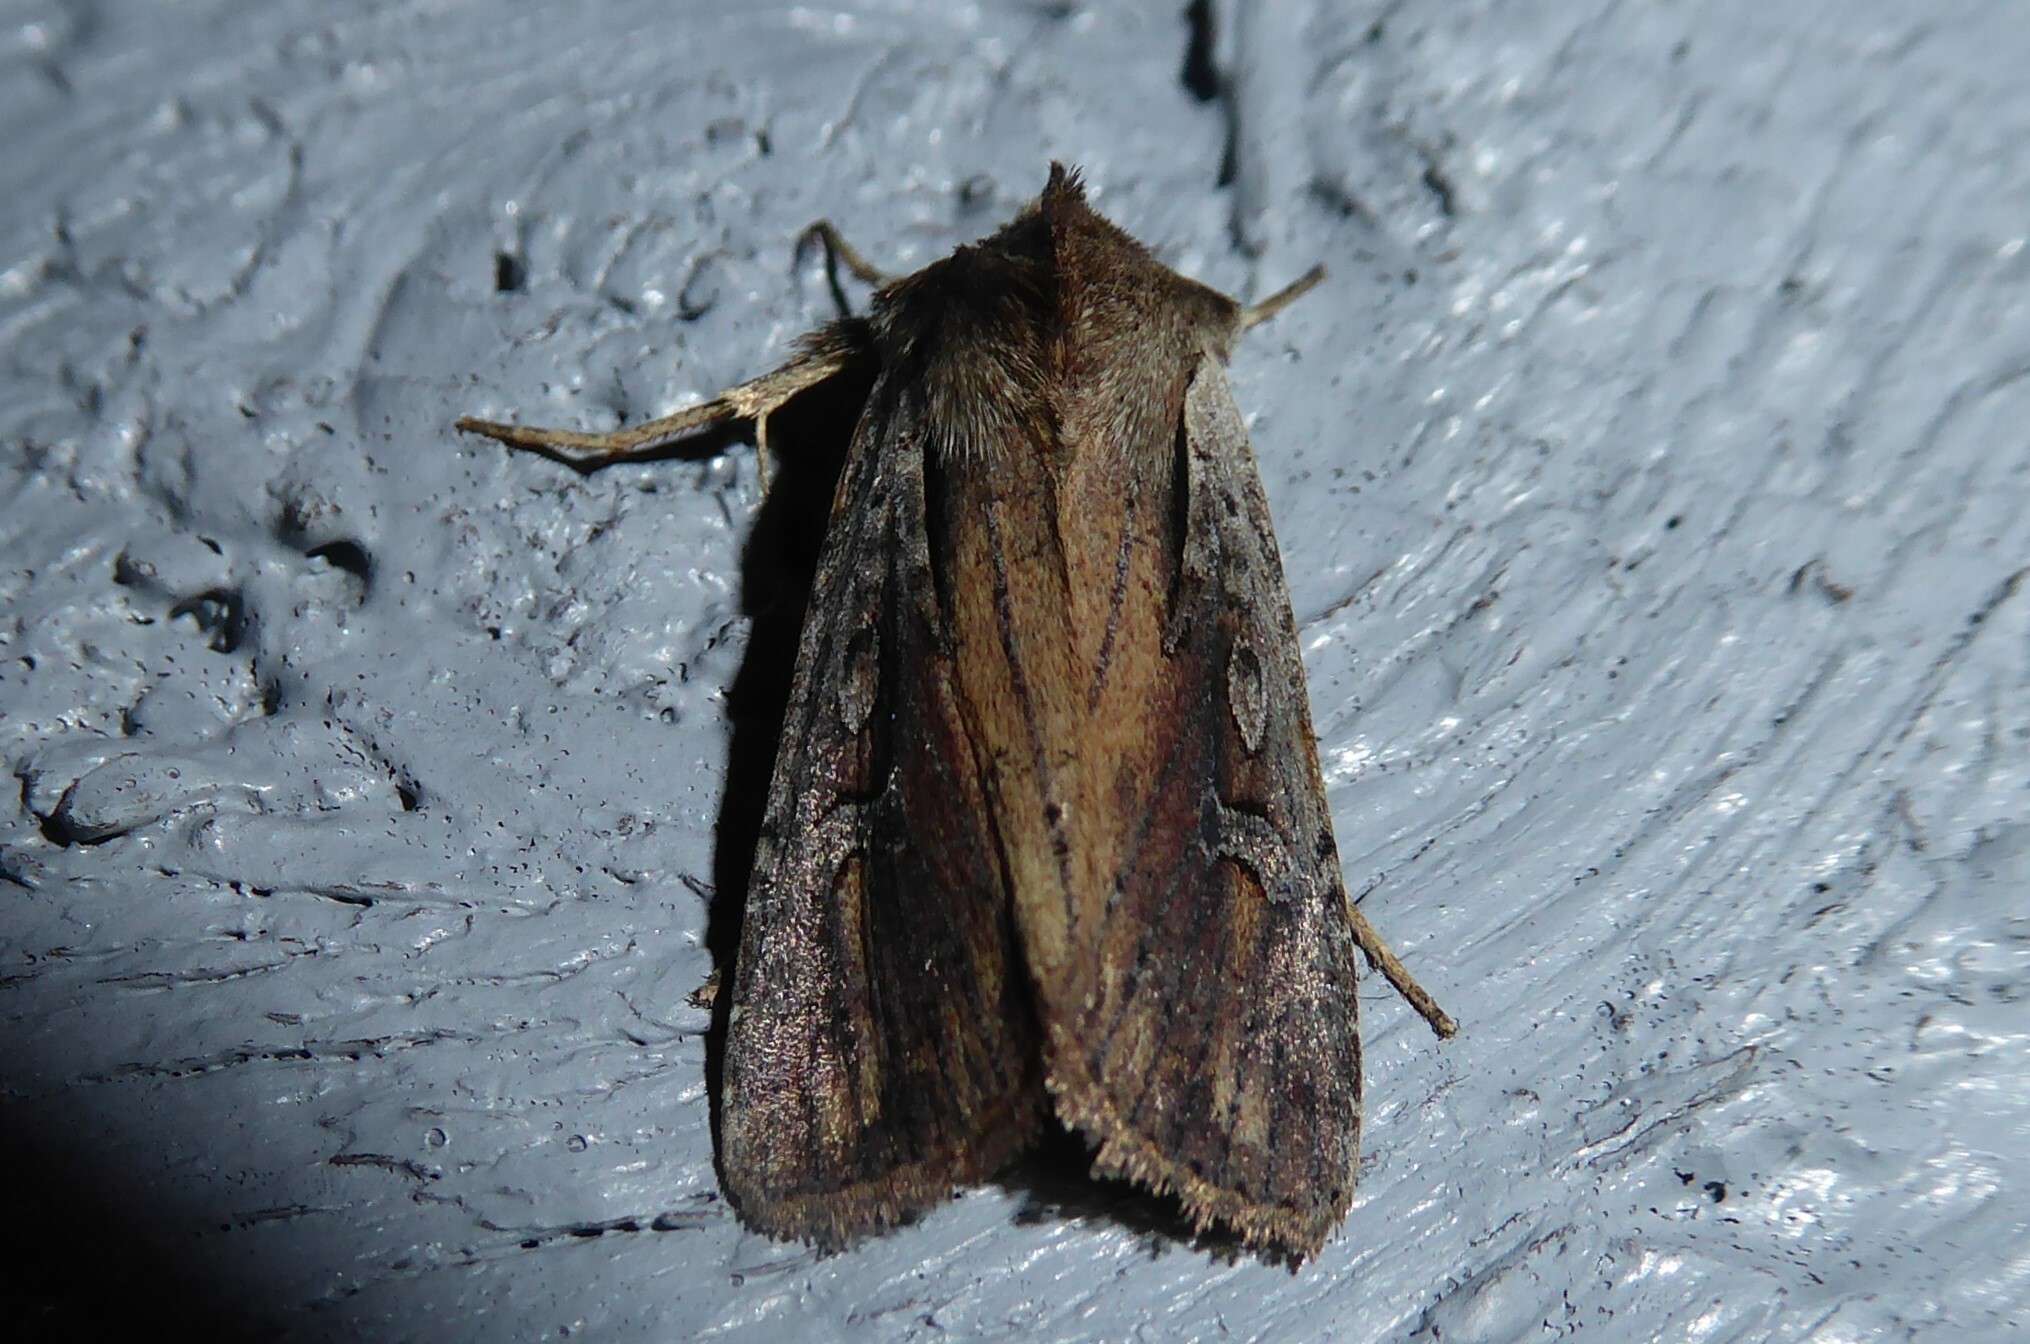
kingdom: Animalia
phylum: Arthropoda
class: Insecta
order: Lepidoptera
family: Noctuidae
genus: Ichneutica
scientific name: Ichneutica atristriga
